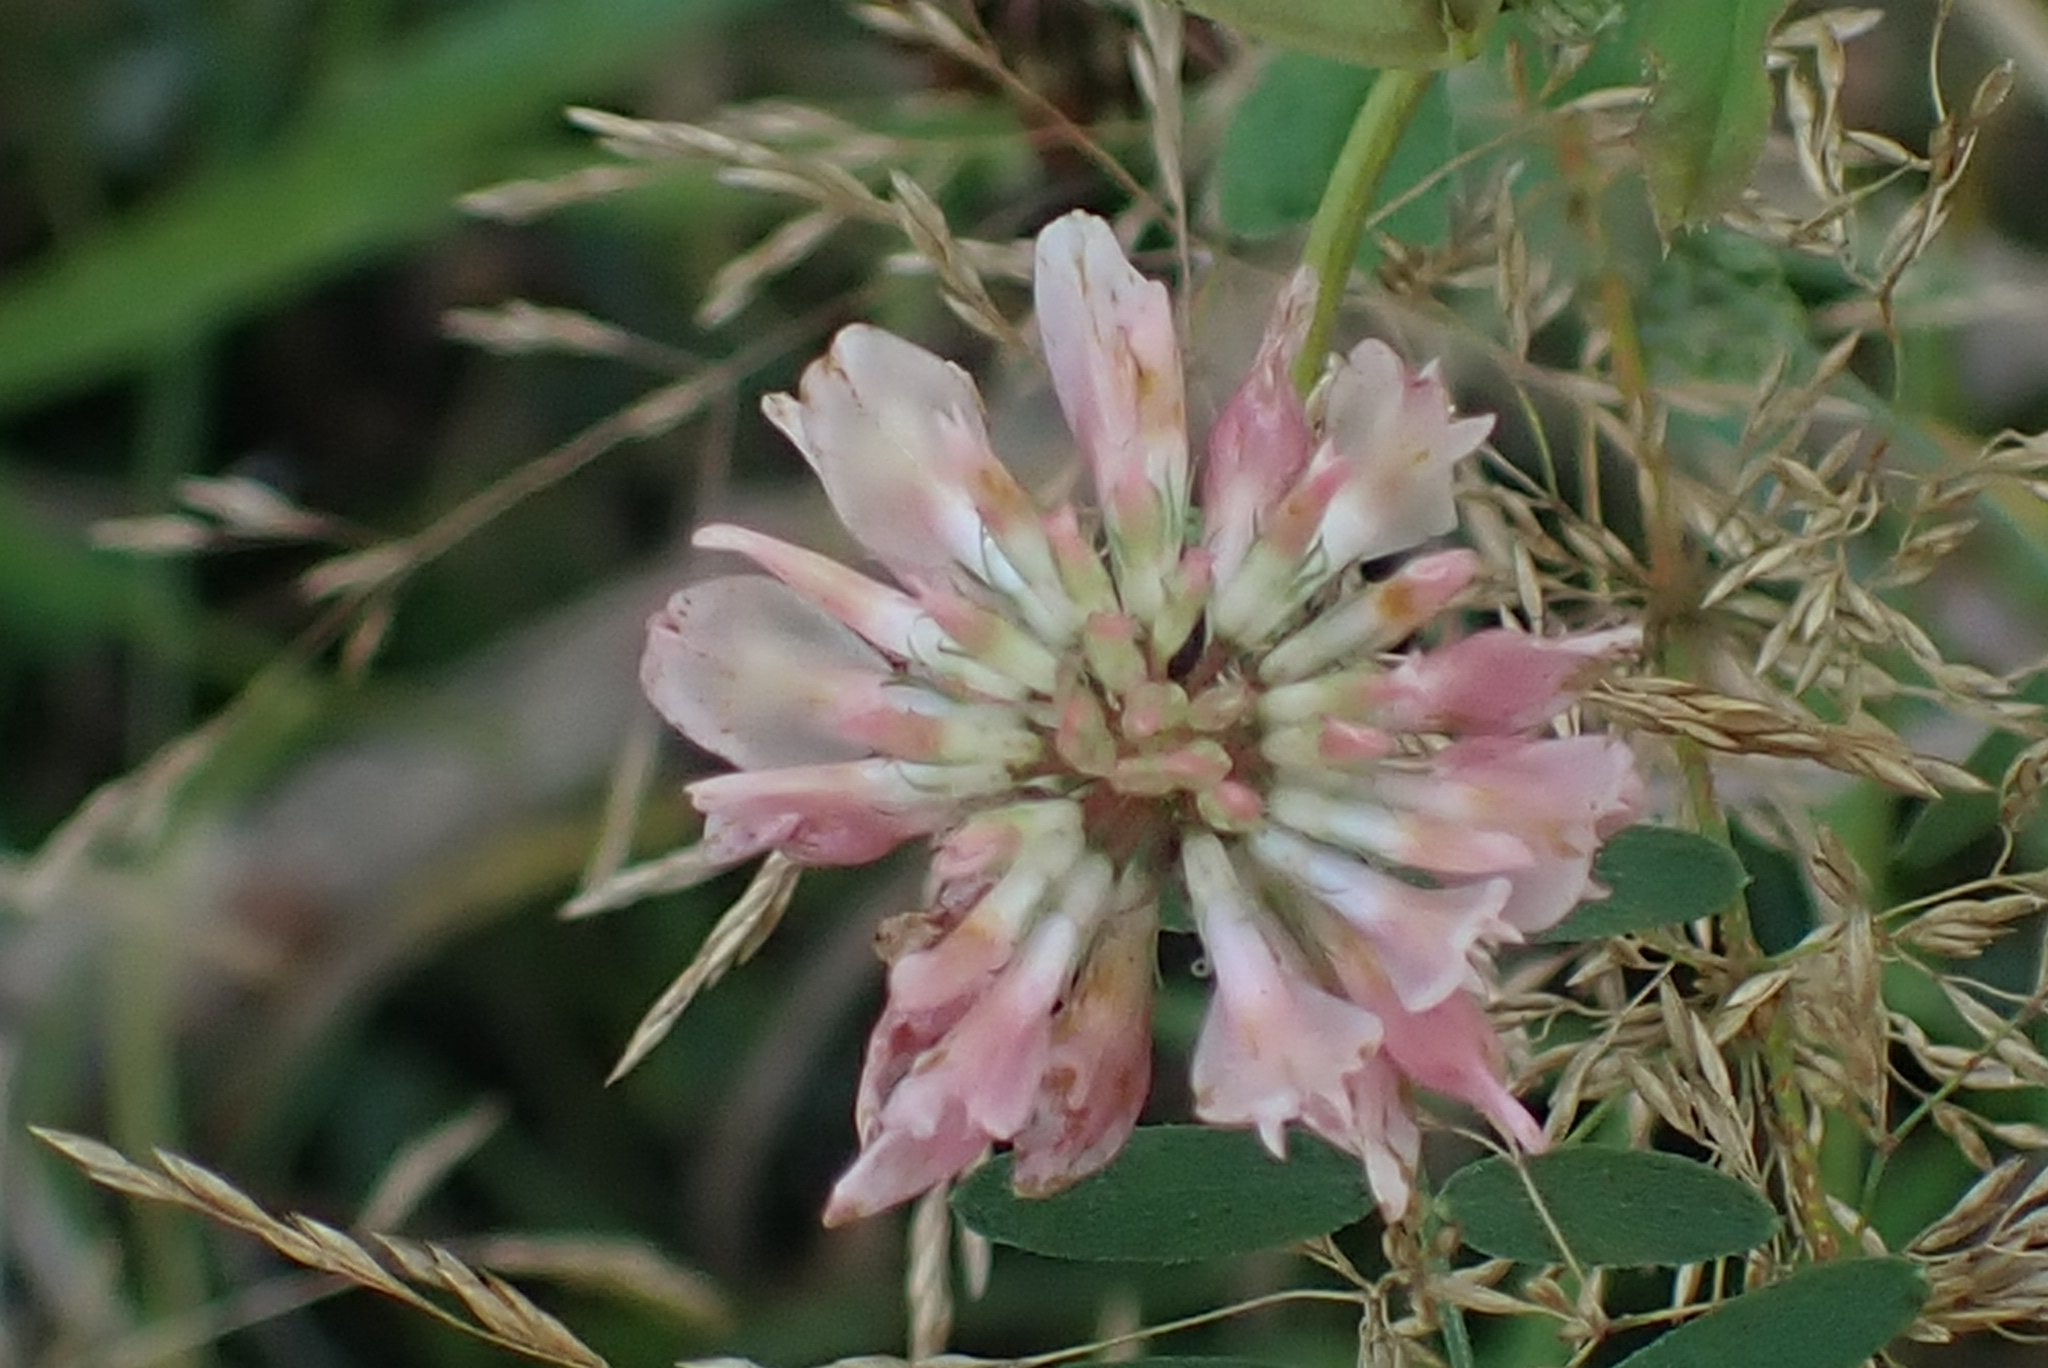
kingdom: Plantae
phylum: Tracheophyta
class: Magnoliopsida
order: Fabales
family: Fabaceae
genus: Trifolium
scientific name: Trifolium repens
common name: White clover
